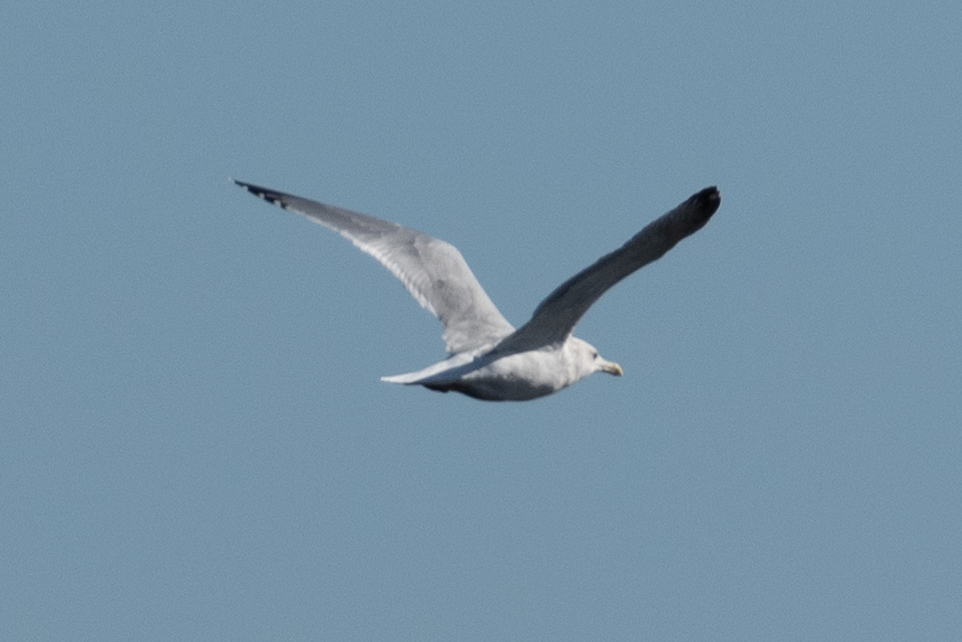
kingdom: Animalia
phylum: Chordata
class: Aves
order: Charadriiformes
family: Laridae
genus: Larus
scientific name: Larus argentatus
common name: Herring gull
